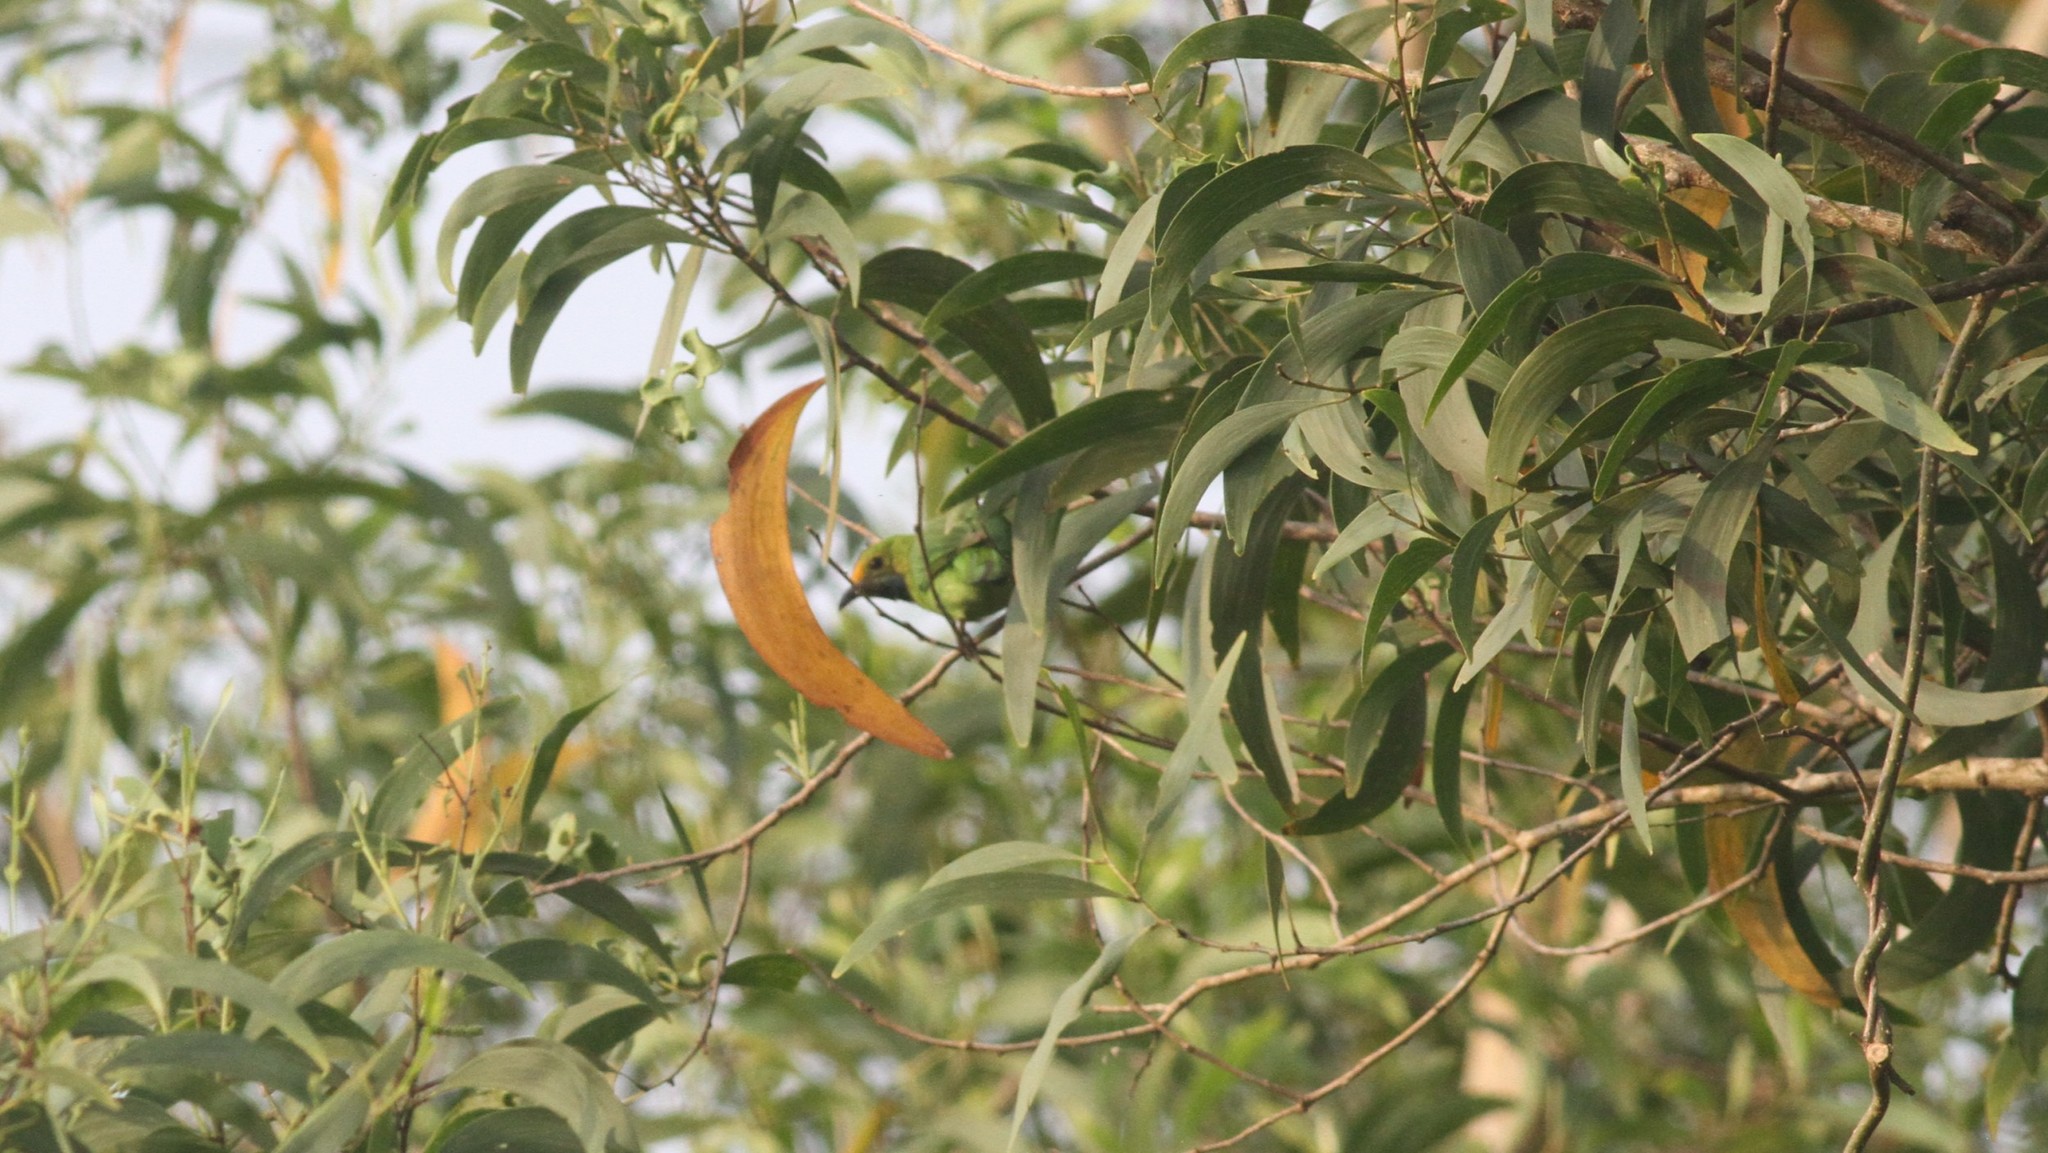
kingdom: Animalia
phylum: Chordata
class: Aves
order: Passeriformes
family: Chloropseidae
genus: Chloropsis
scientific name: Chloropsis aurifrons
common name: Golden-fronted leafbird
